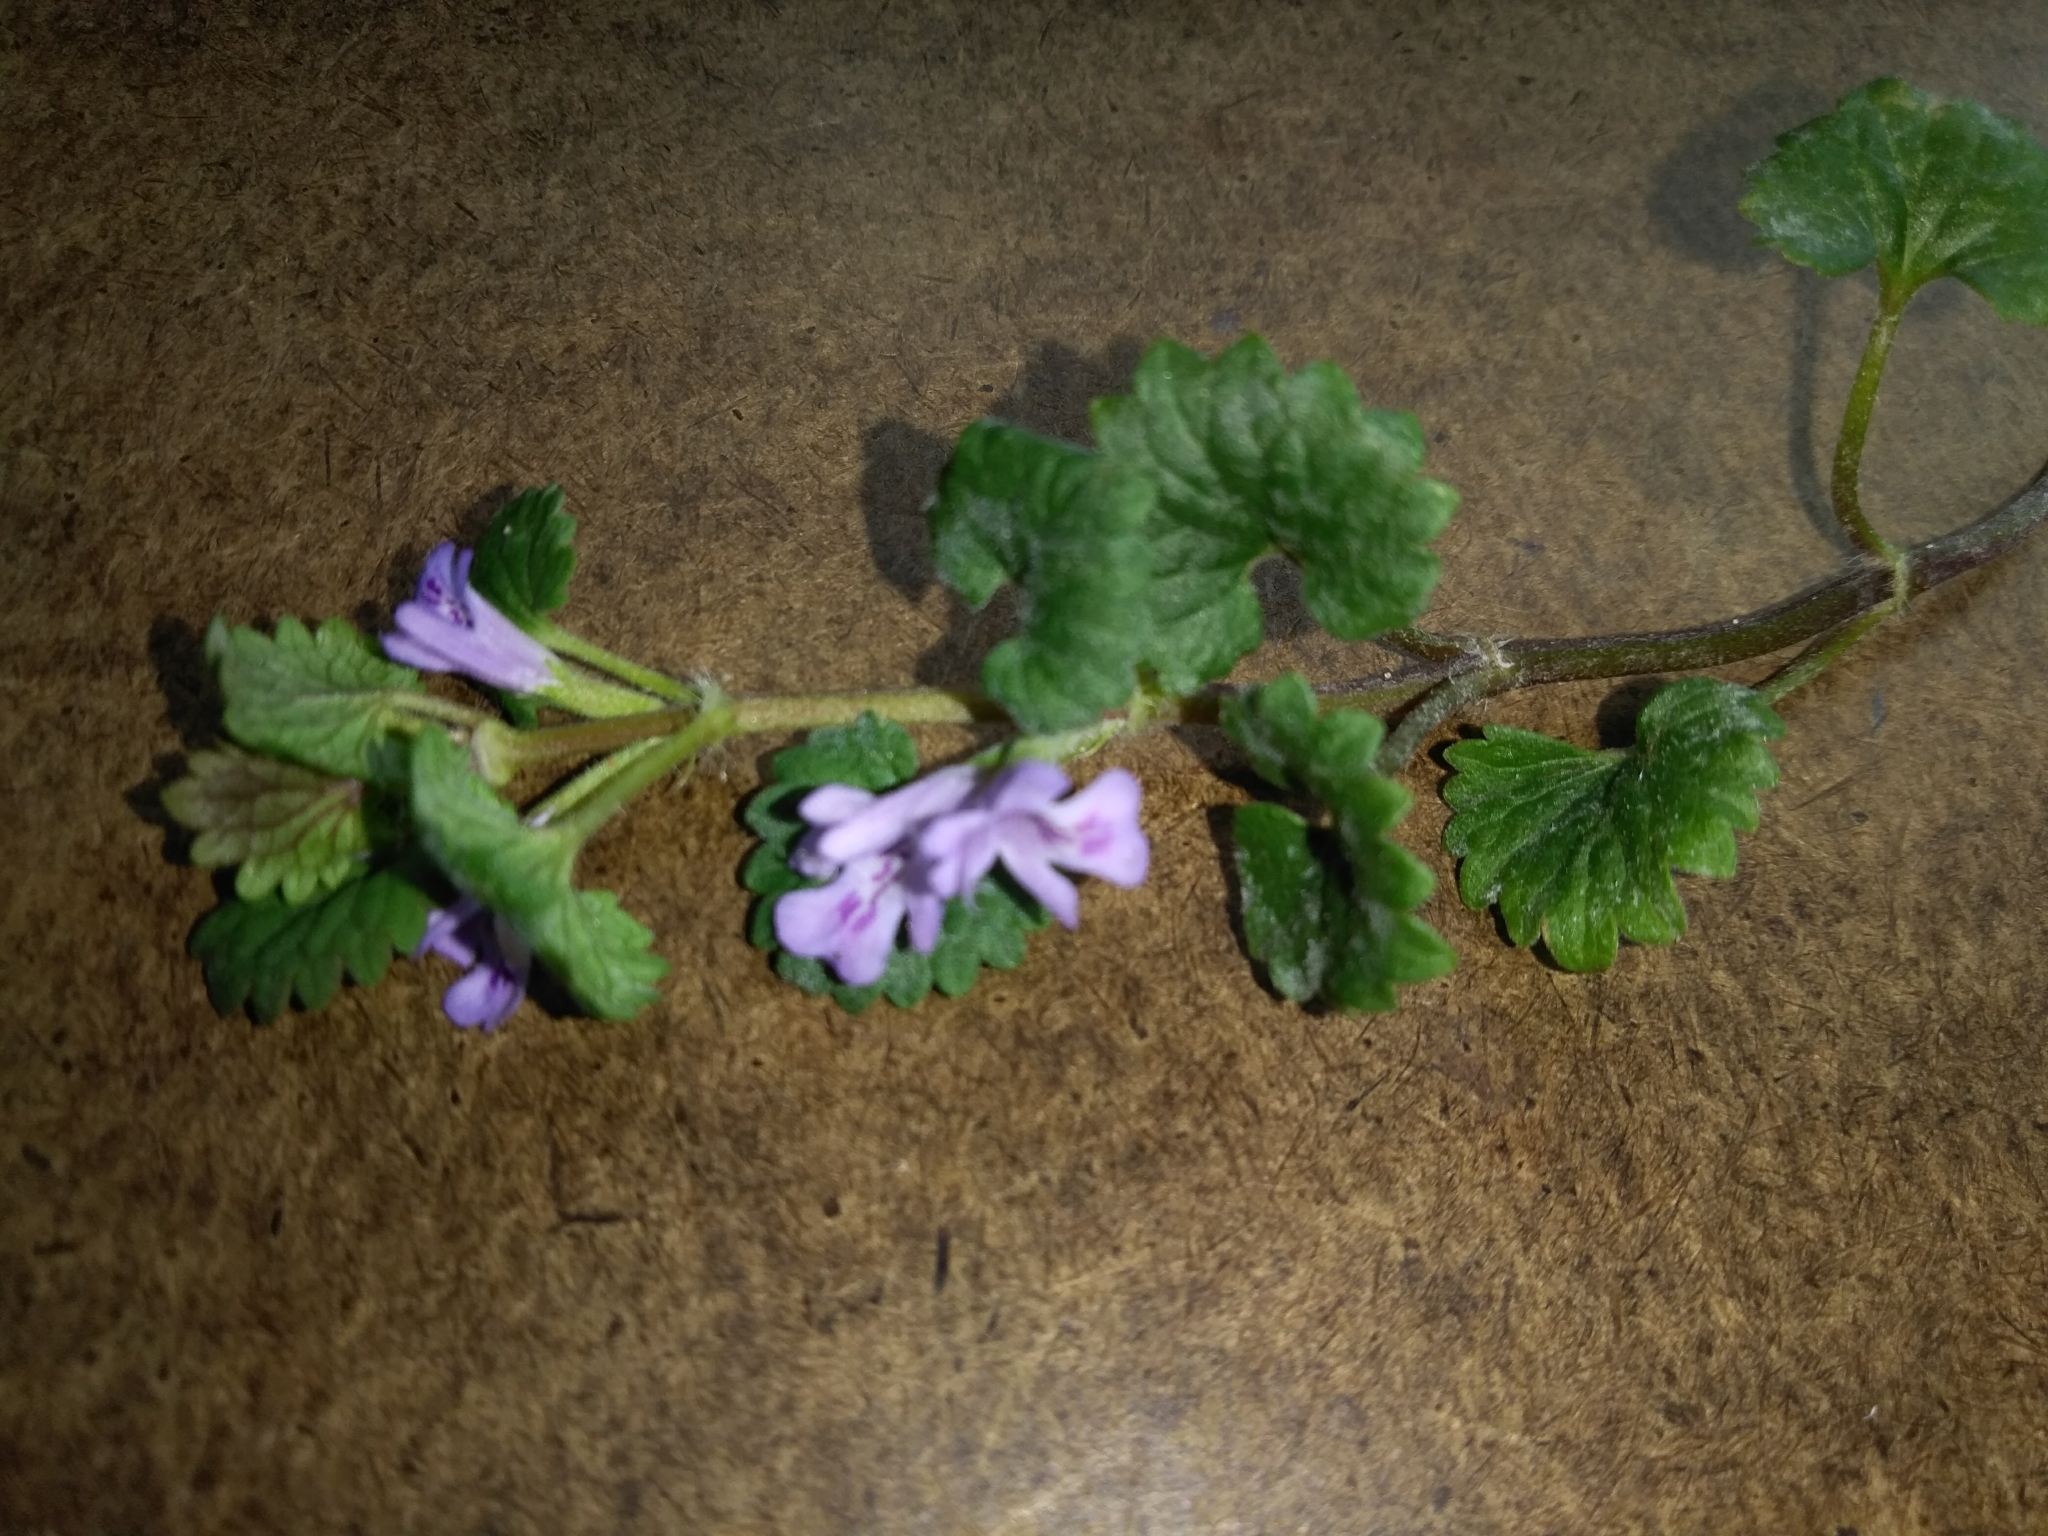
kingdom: Plantae
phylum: Tracheophyta
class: Magnoliopsida
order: Lamiales
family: Lamiaceae
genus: Glechoma
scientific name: Glechoma hederacea
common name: Ground ivy
